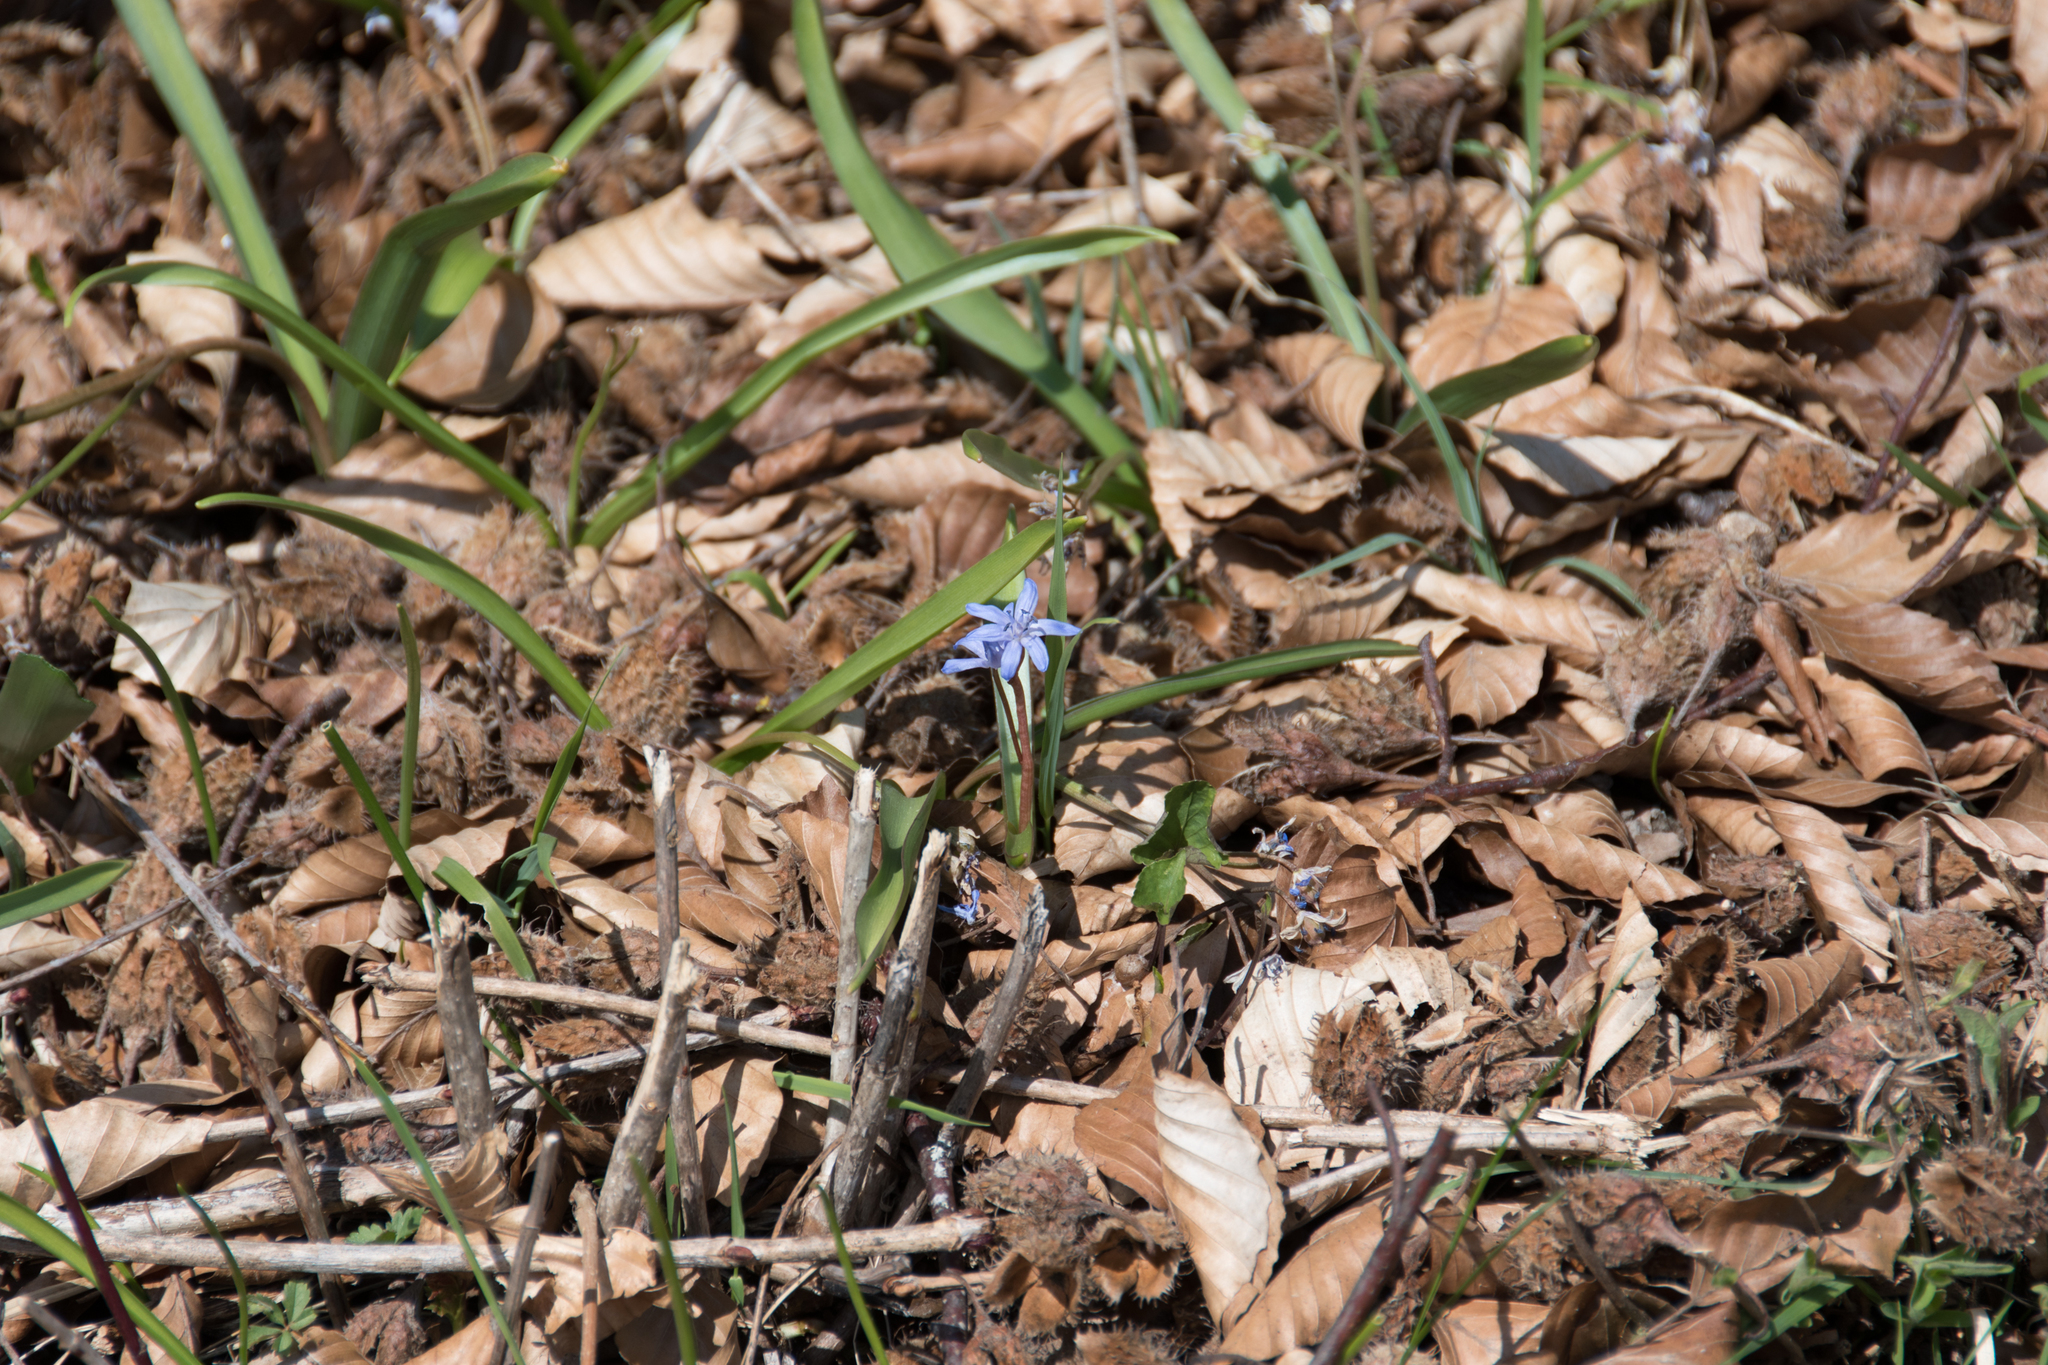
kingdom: Plantae
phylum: Tracheophyta
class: Liliopsida
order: Asparagales
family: Asparagaceae
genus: Scilla
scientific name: Scilla bifolia
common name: Alpine squill
